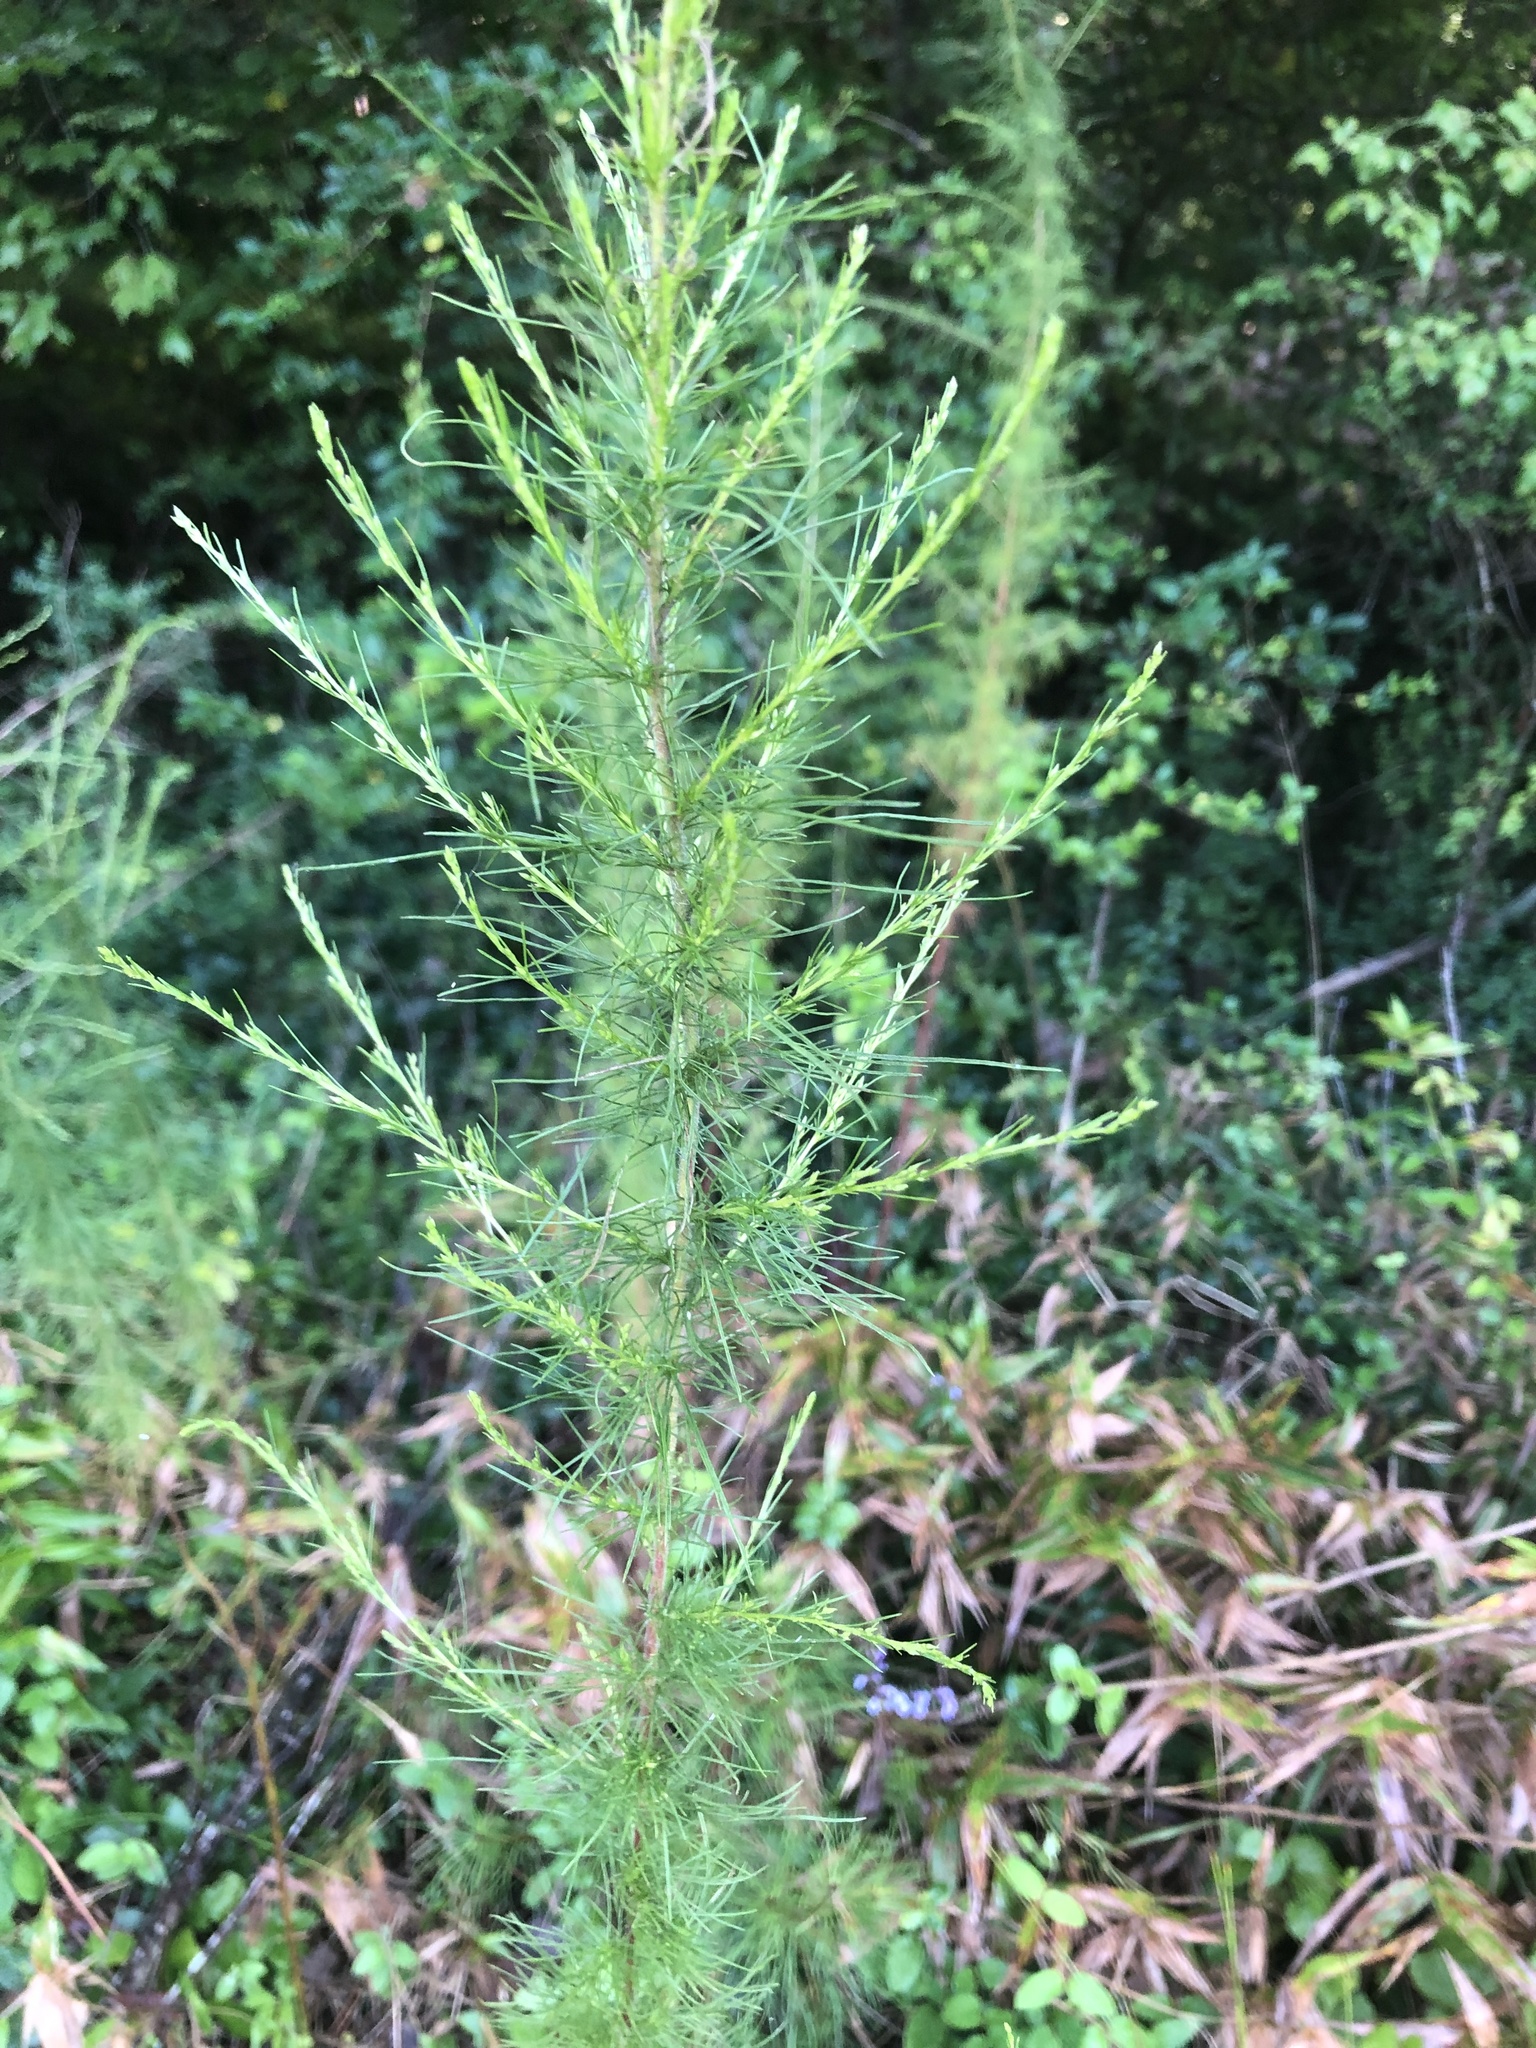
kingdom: Plantae
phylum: Tracheophyta
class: Magnoliopsida
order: Asterales
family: Asteraceae
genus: Eupatorium
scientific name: Eupatorium capillifolium
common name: Dog-fennel
